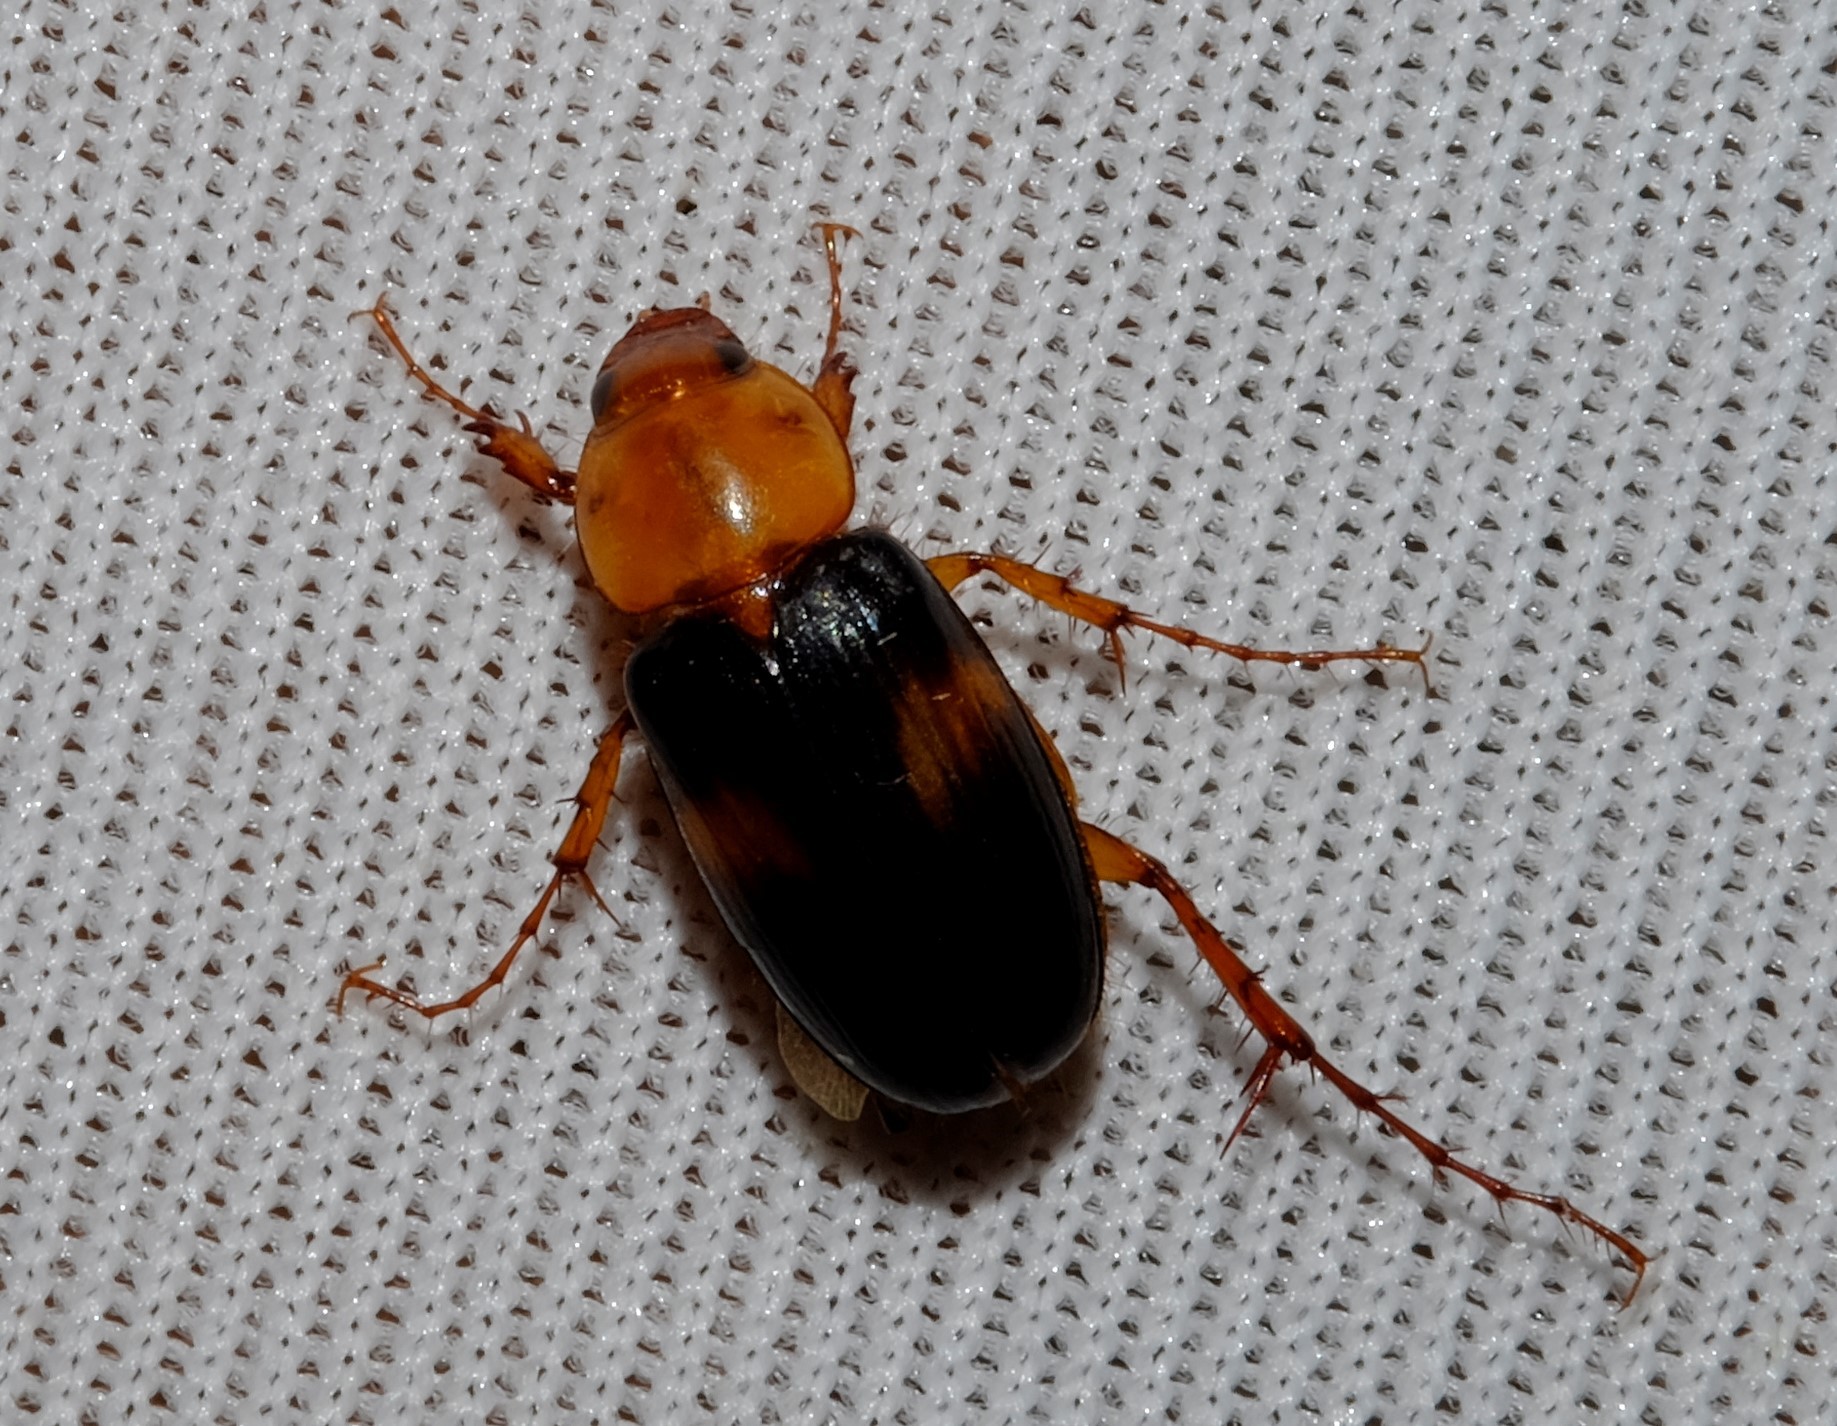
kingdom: Animalia
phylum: Arthropoda
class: Insecta
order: Coleoptera
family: Scarabaeidae
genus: Phyllotocus
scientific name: Phyllotocus bimaculatus
